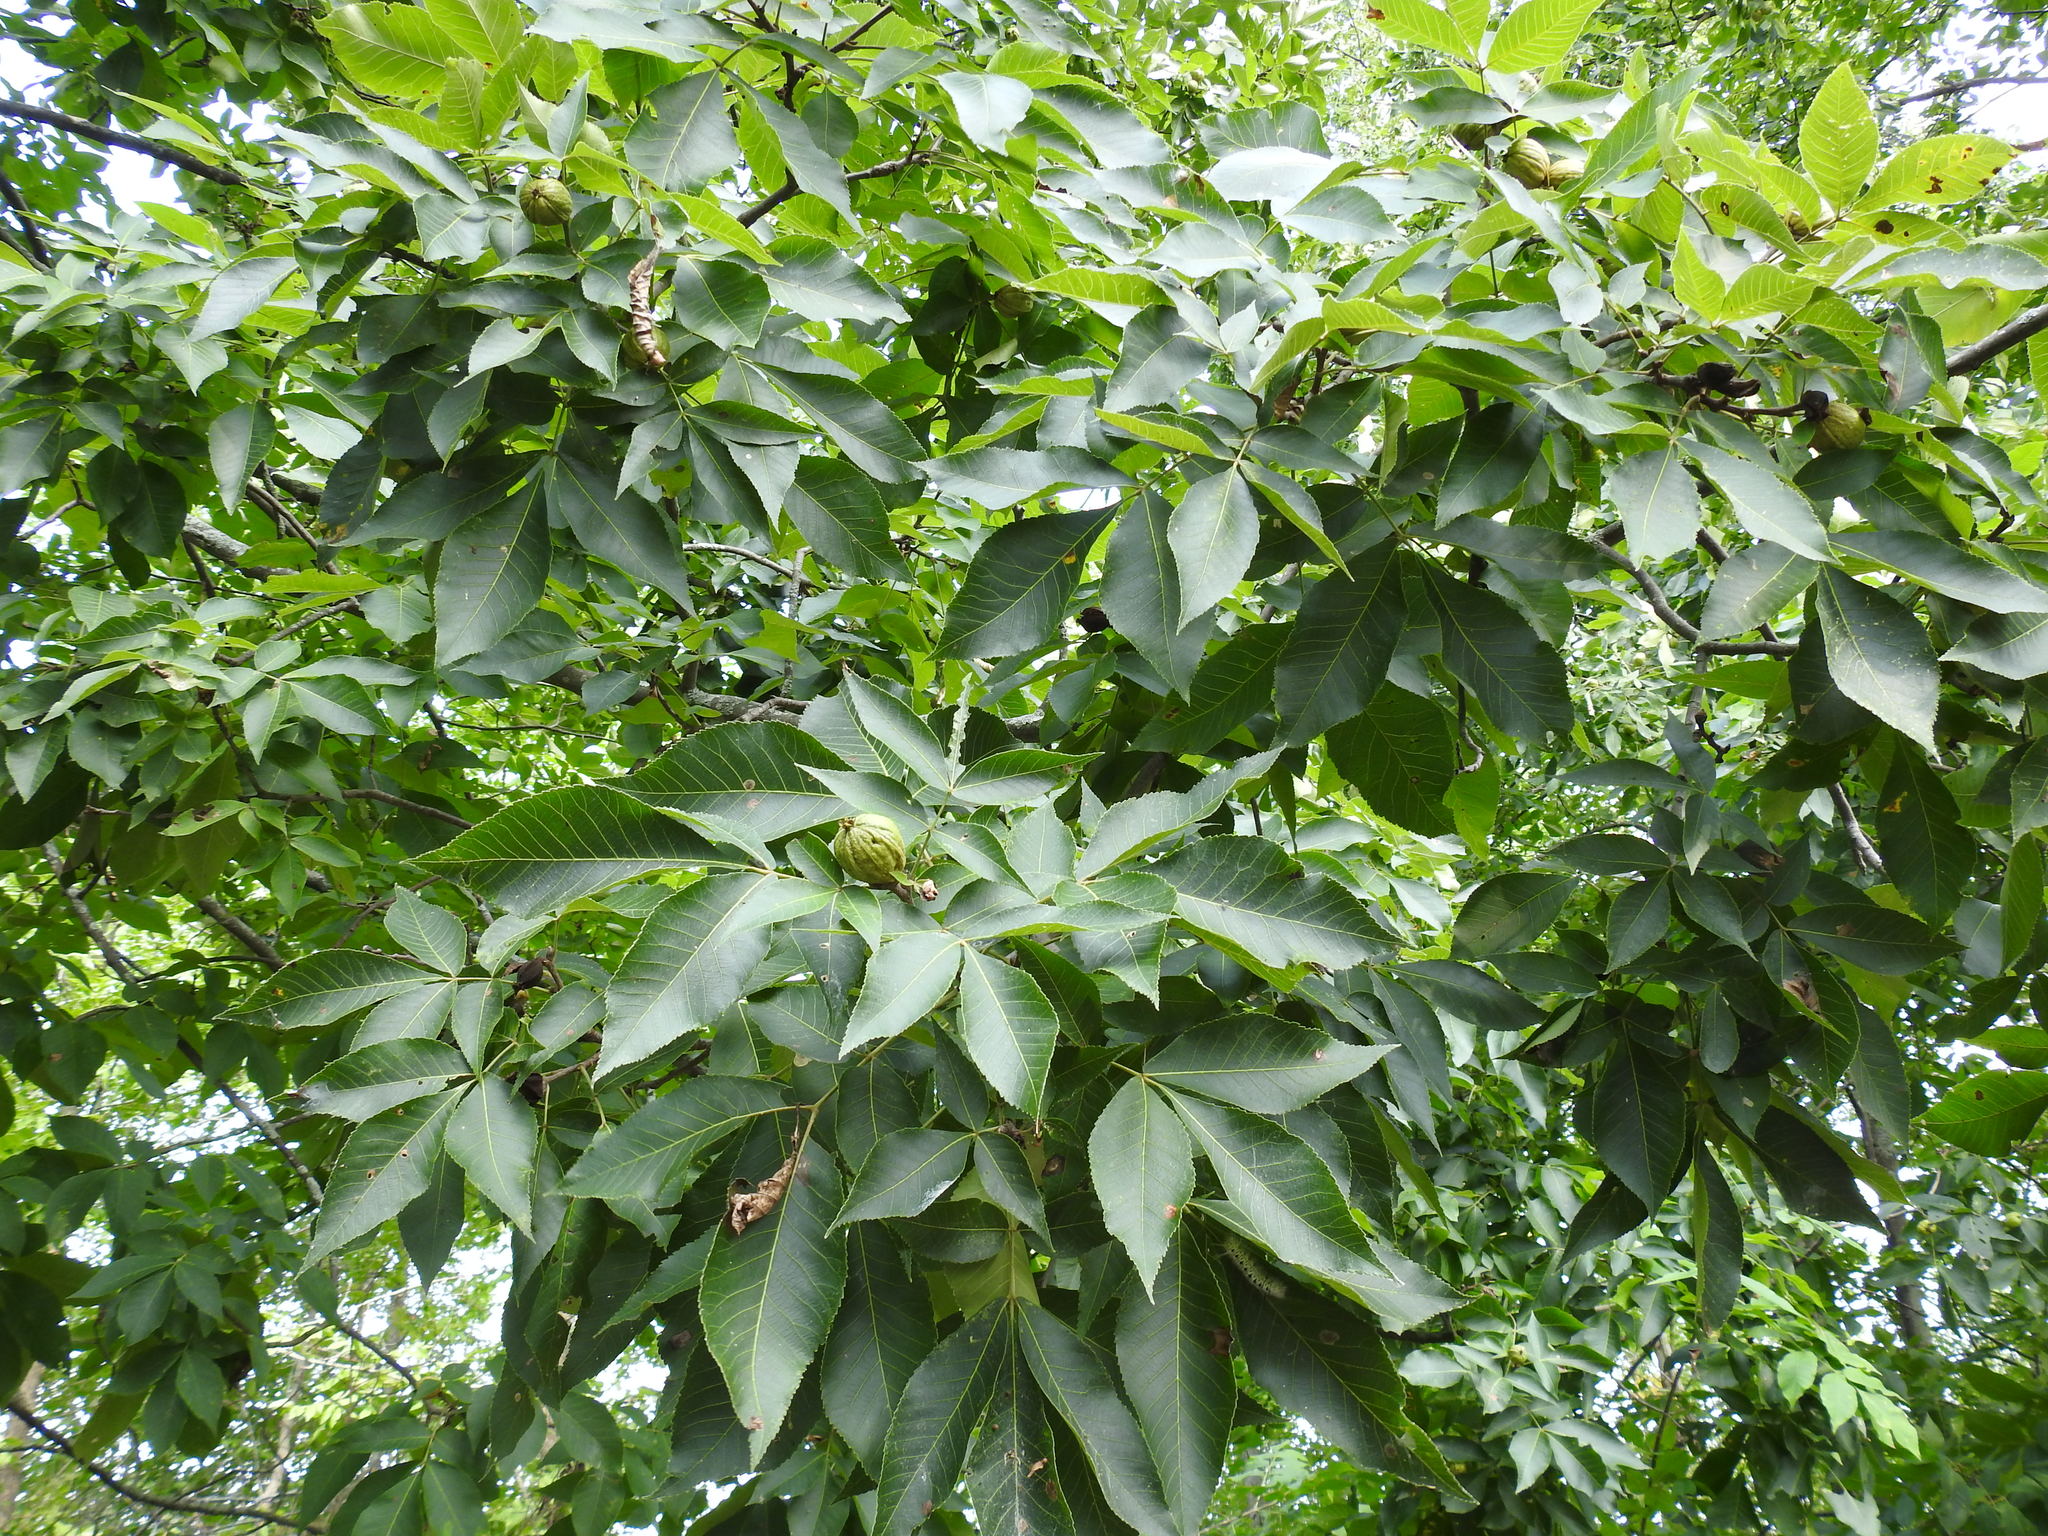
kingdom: Plantae
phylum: Tracheophyta
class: Magnoliopsida
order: Fagales
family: Juglandaceae
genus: Carya
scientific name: Carya ovata
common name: Shagbark hickory
